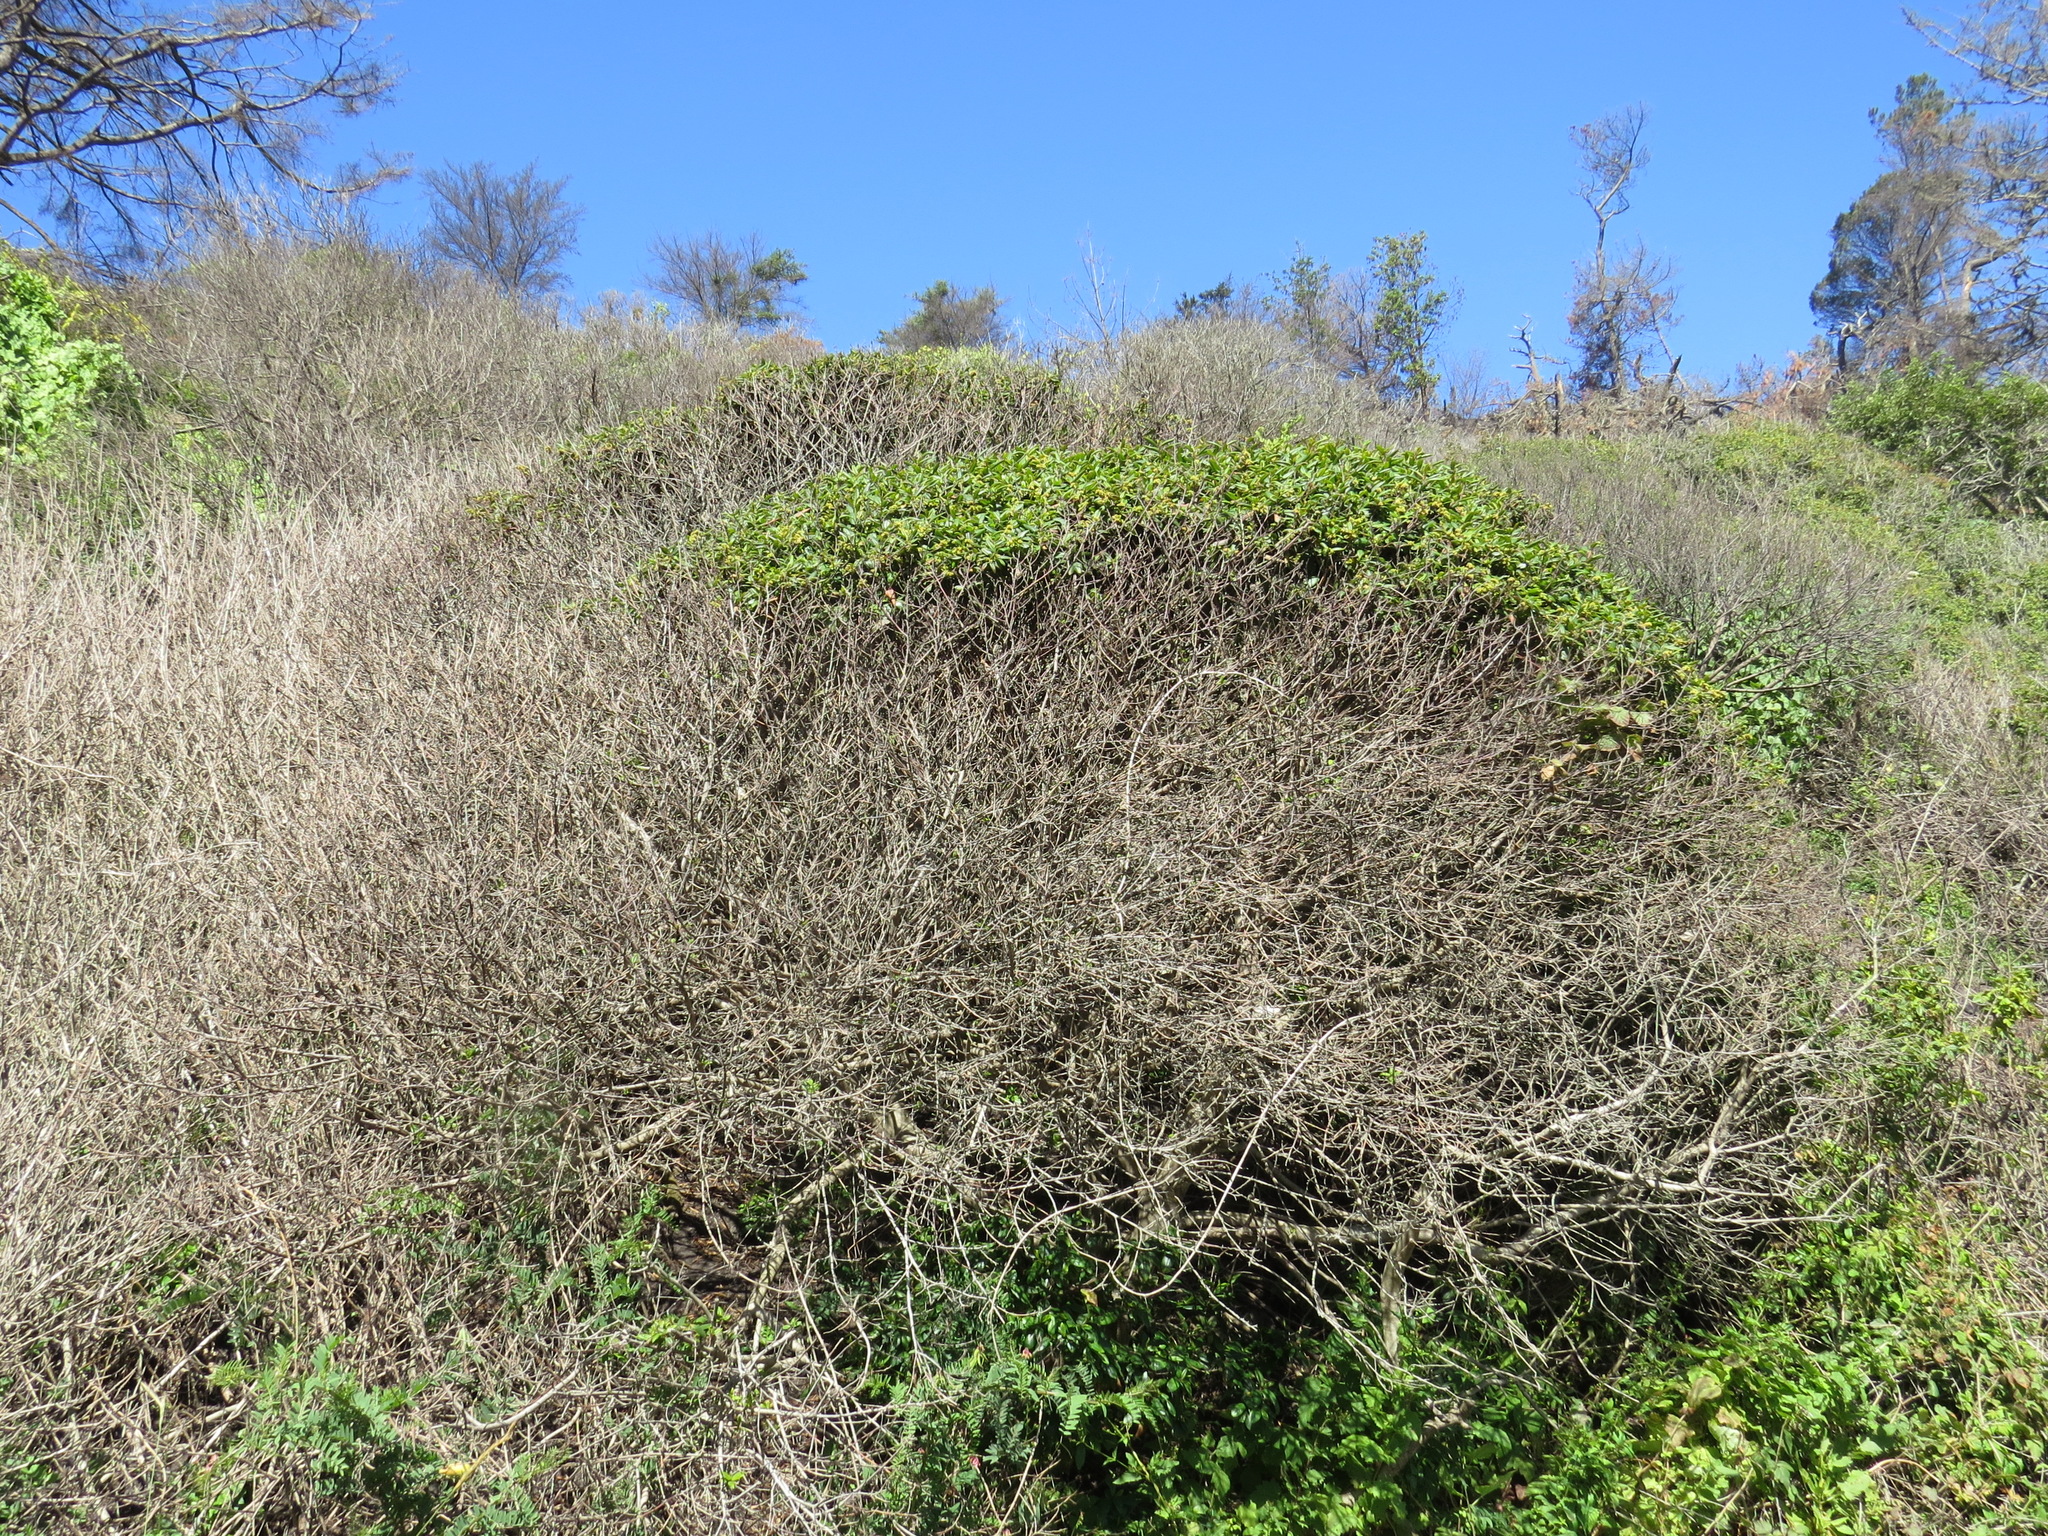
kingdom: Plantae
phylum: Tracheophyta
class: Magnoliopsida
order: Rosales
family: Rhamnaceae
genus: Frangula
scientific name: Frangula californica
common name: California buckthorn
